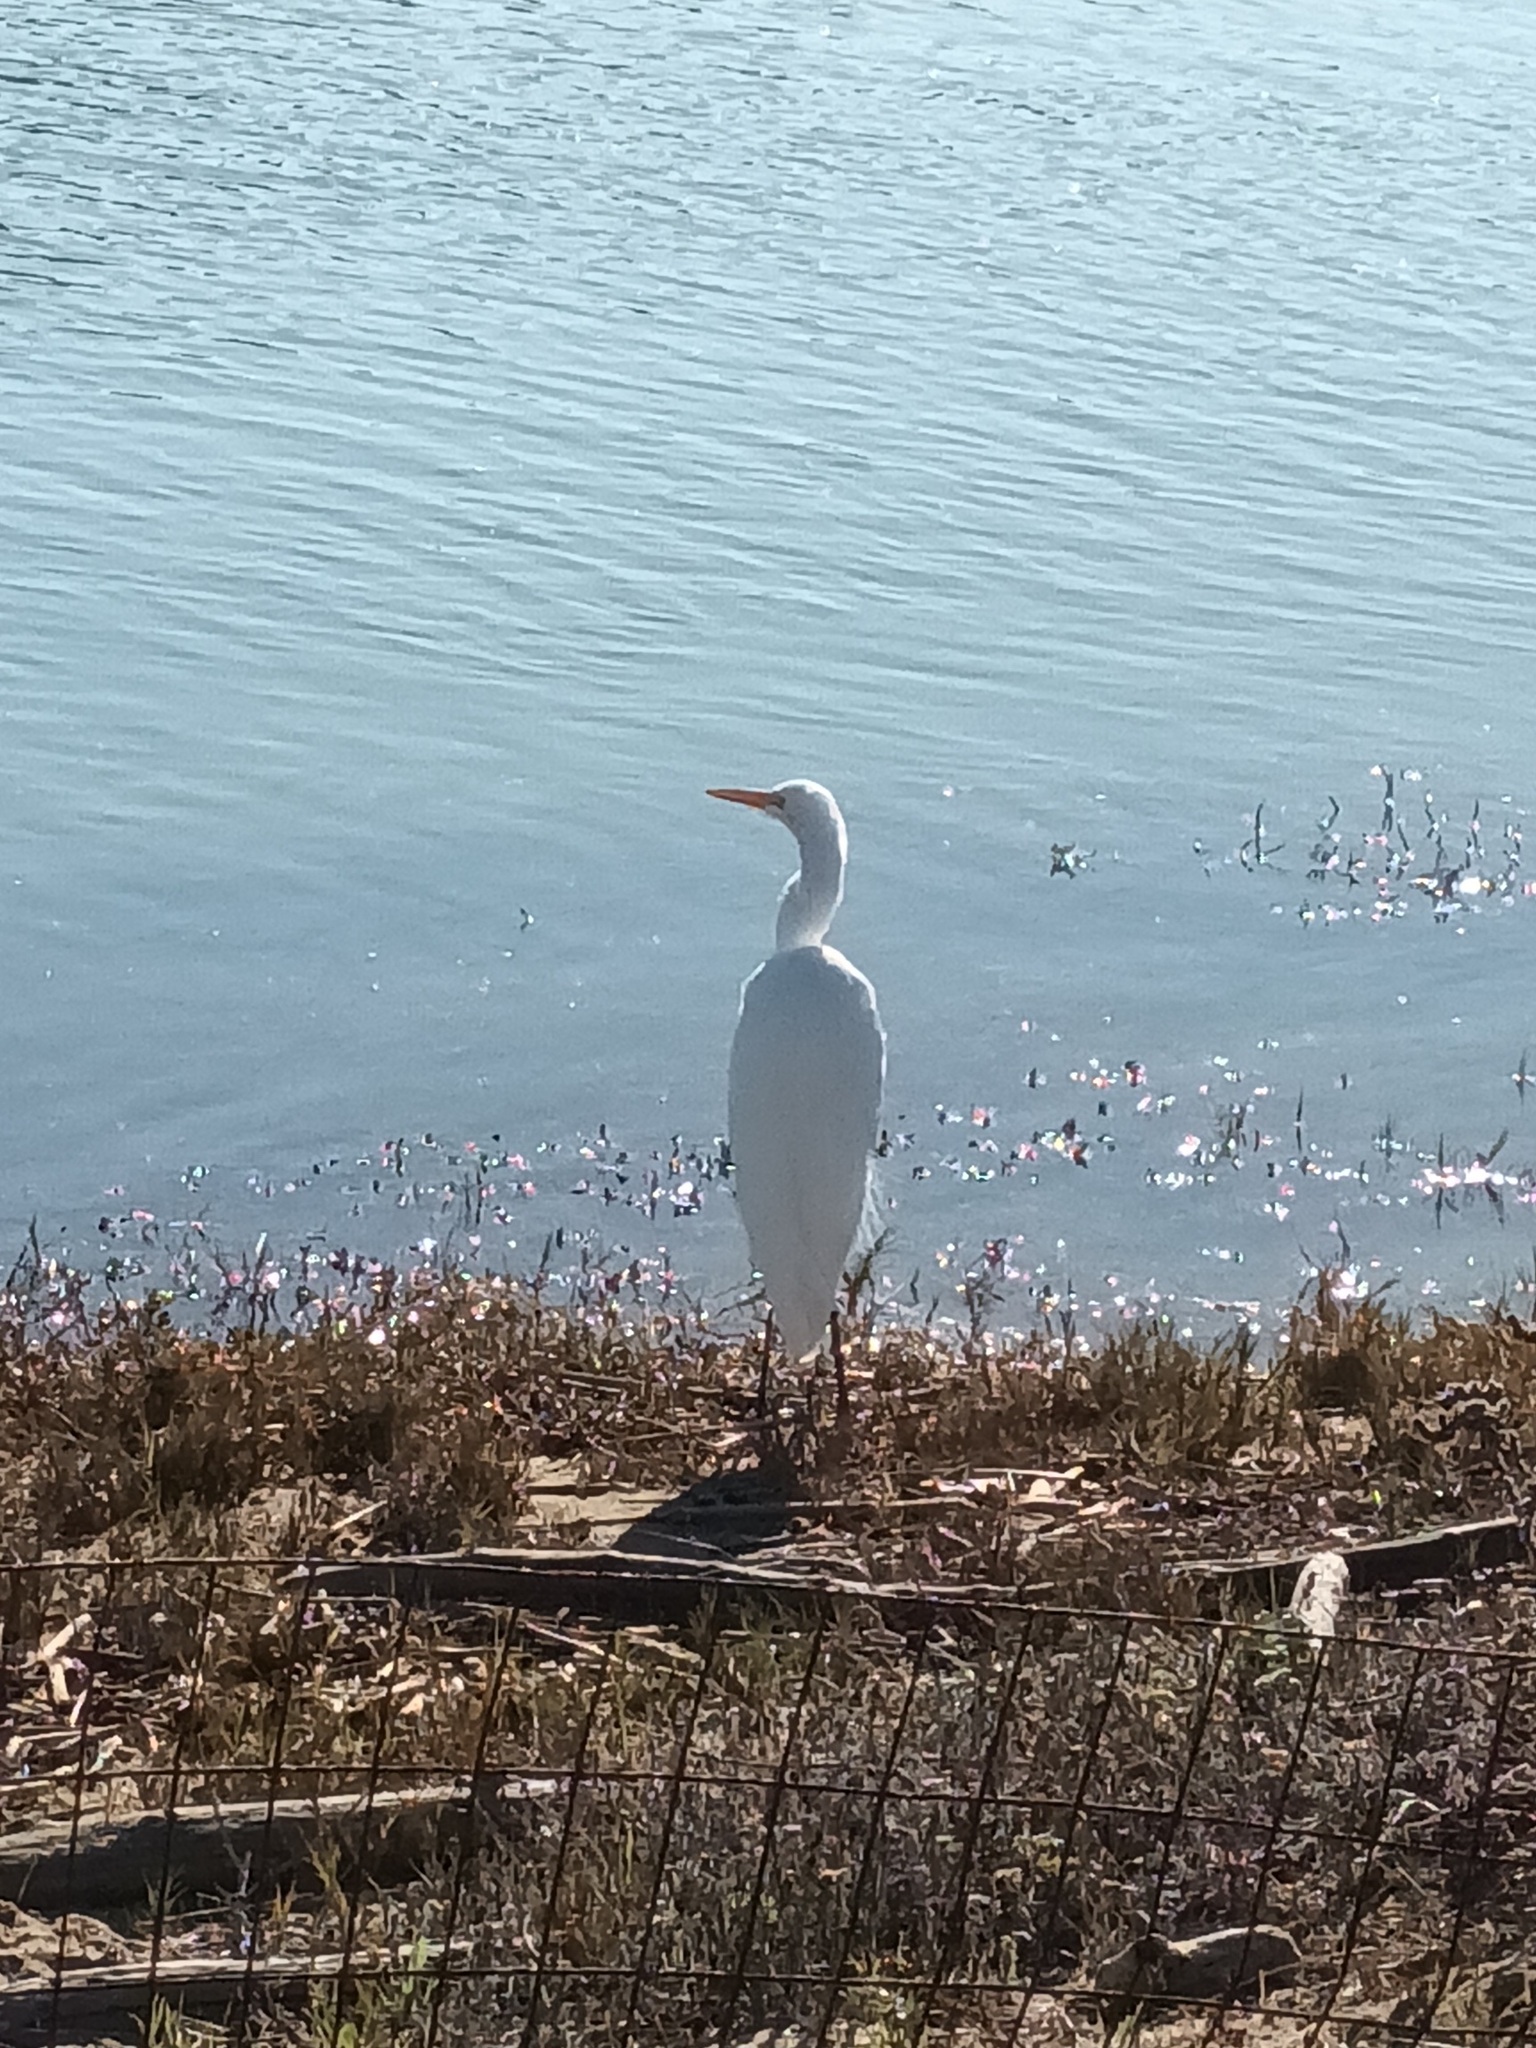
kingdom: Animalia
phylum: Chordata
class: Aves
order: Pelecaniformes
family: Ardeidae
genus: Ardea
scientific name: Ardea alba
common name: Great egret
